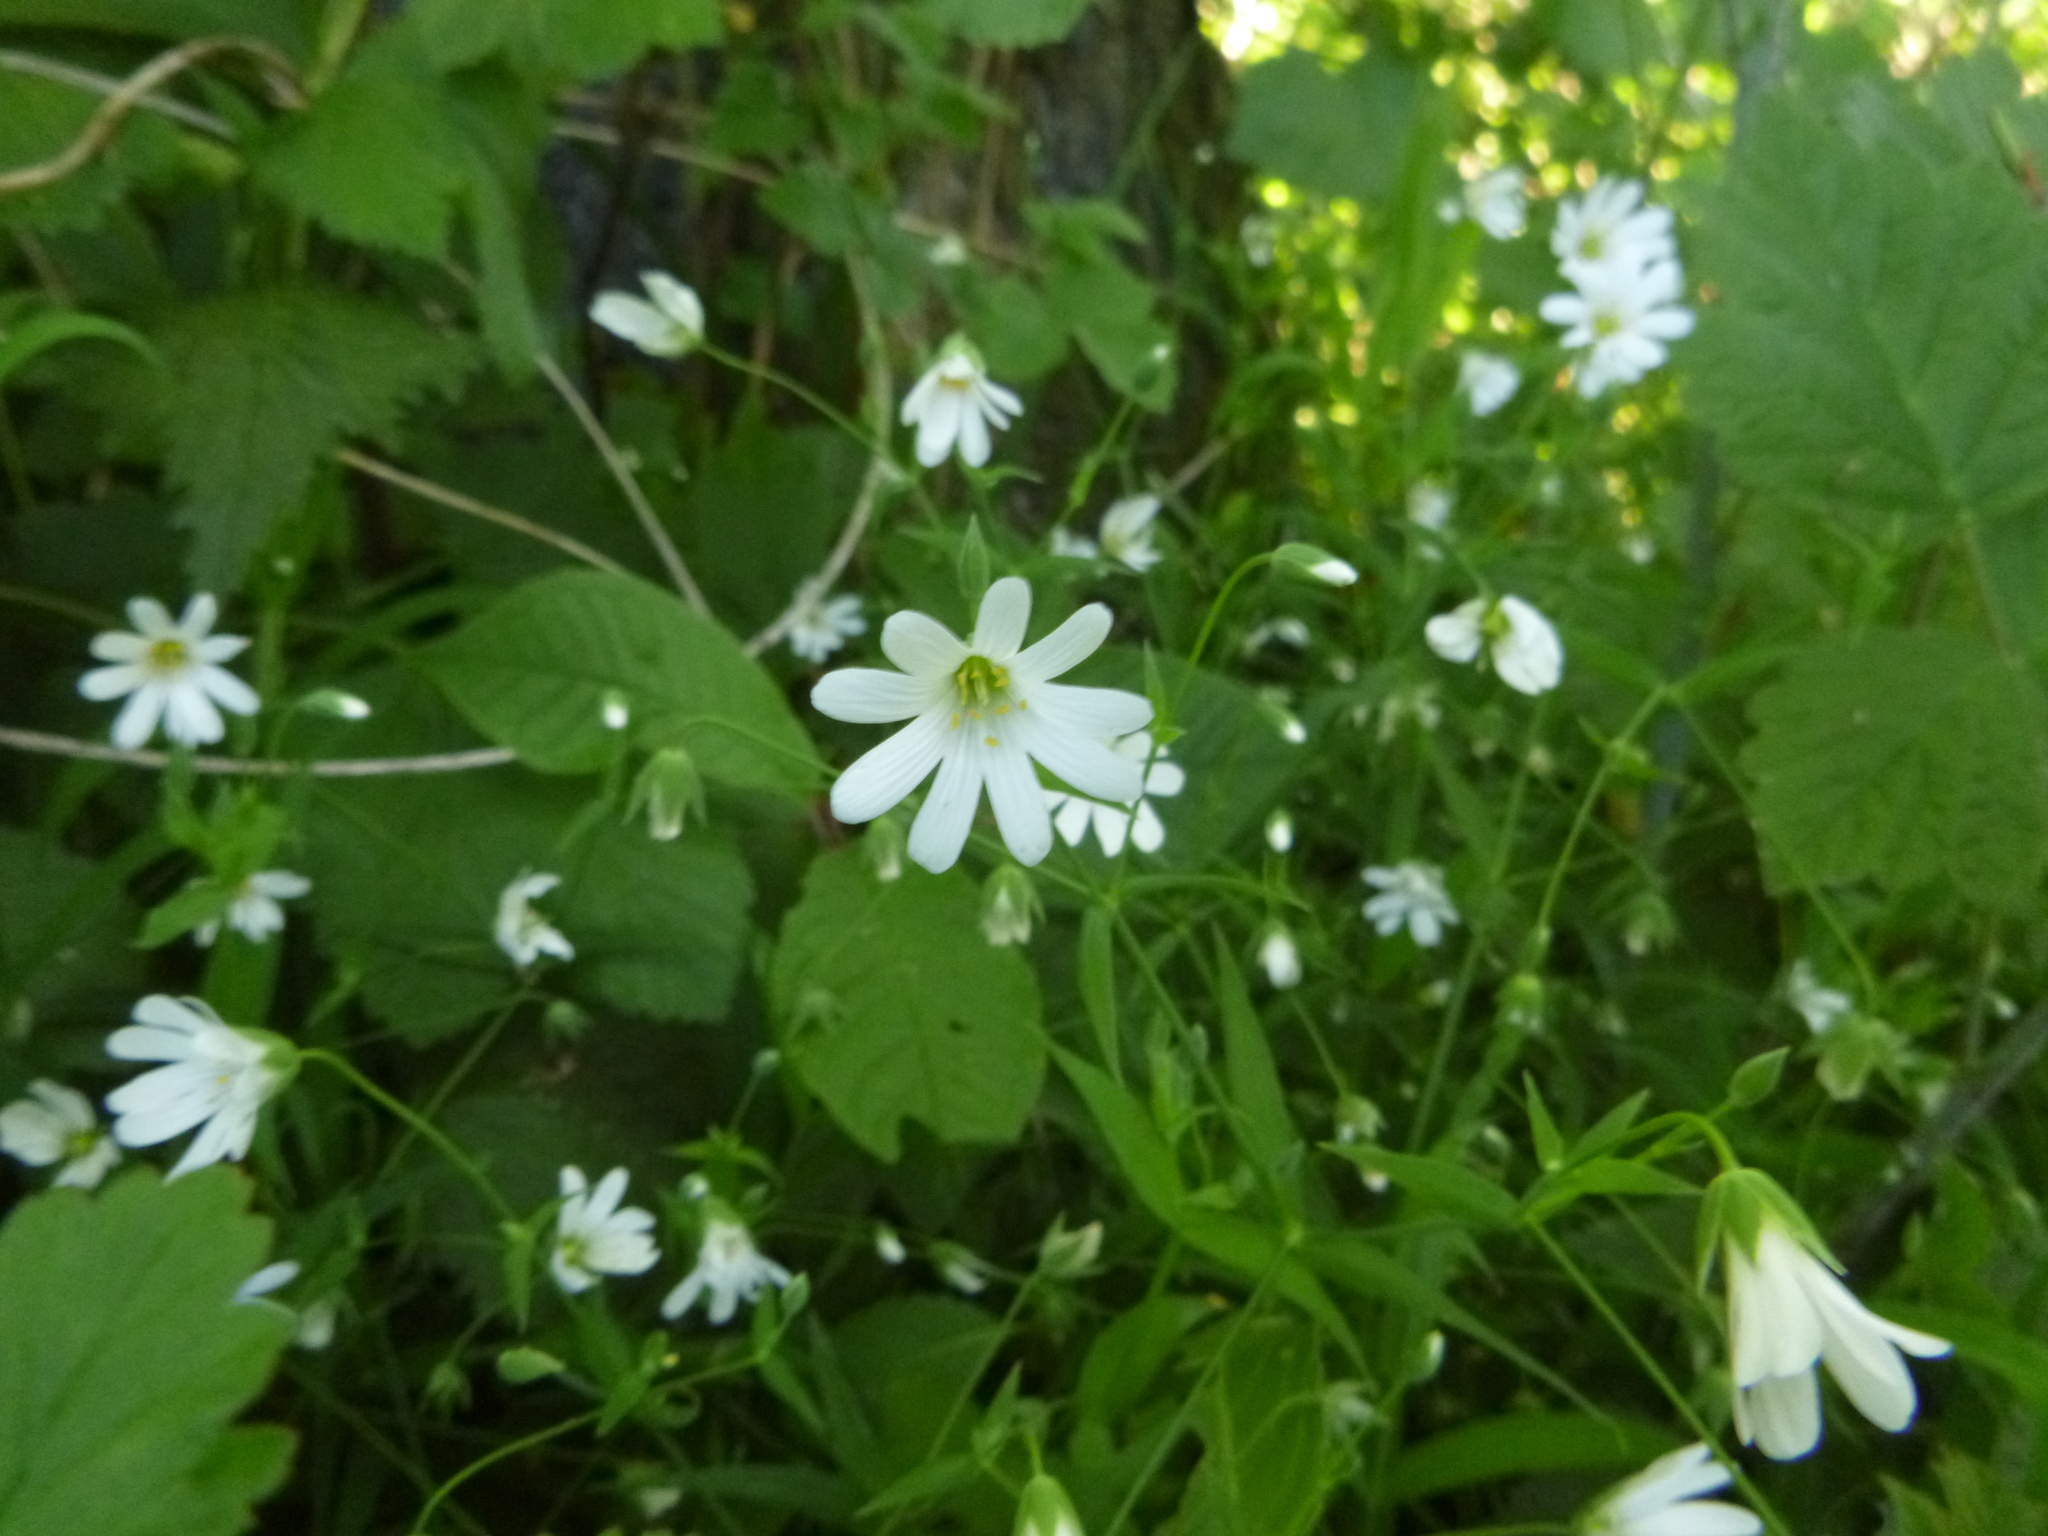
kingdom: Plantae
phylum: Tracheophyta
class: Magnoliopsida
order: Caryophyllales
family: Caryophyllaceae
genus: Rabelera
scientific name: Rabelera holostea
